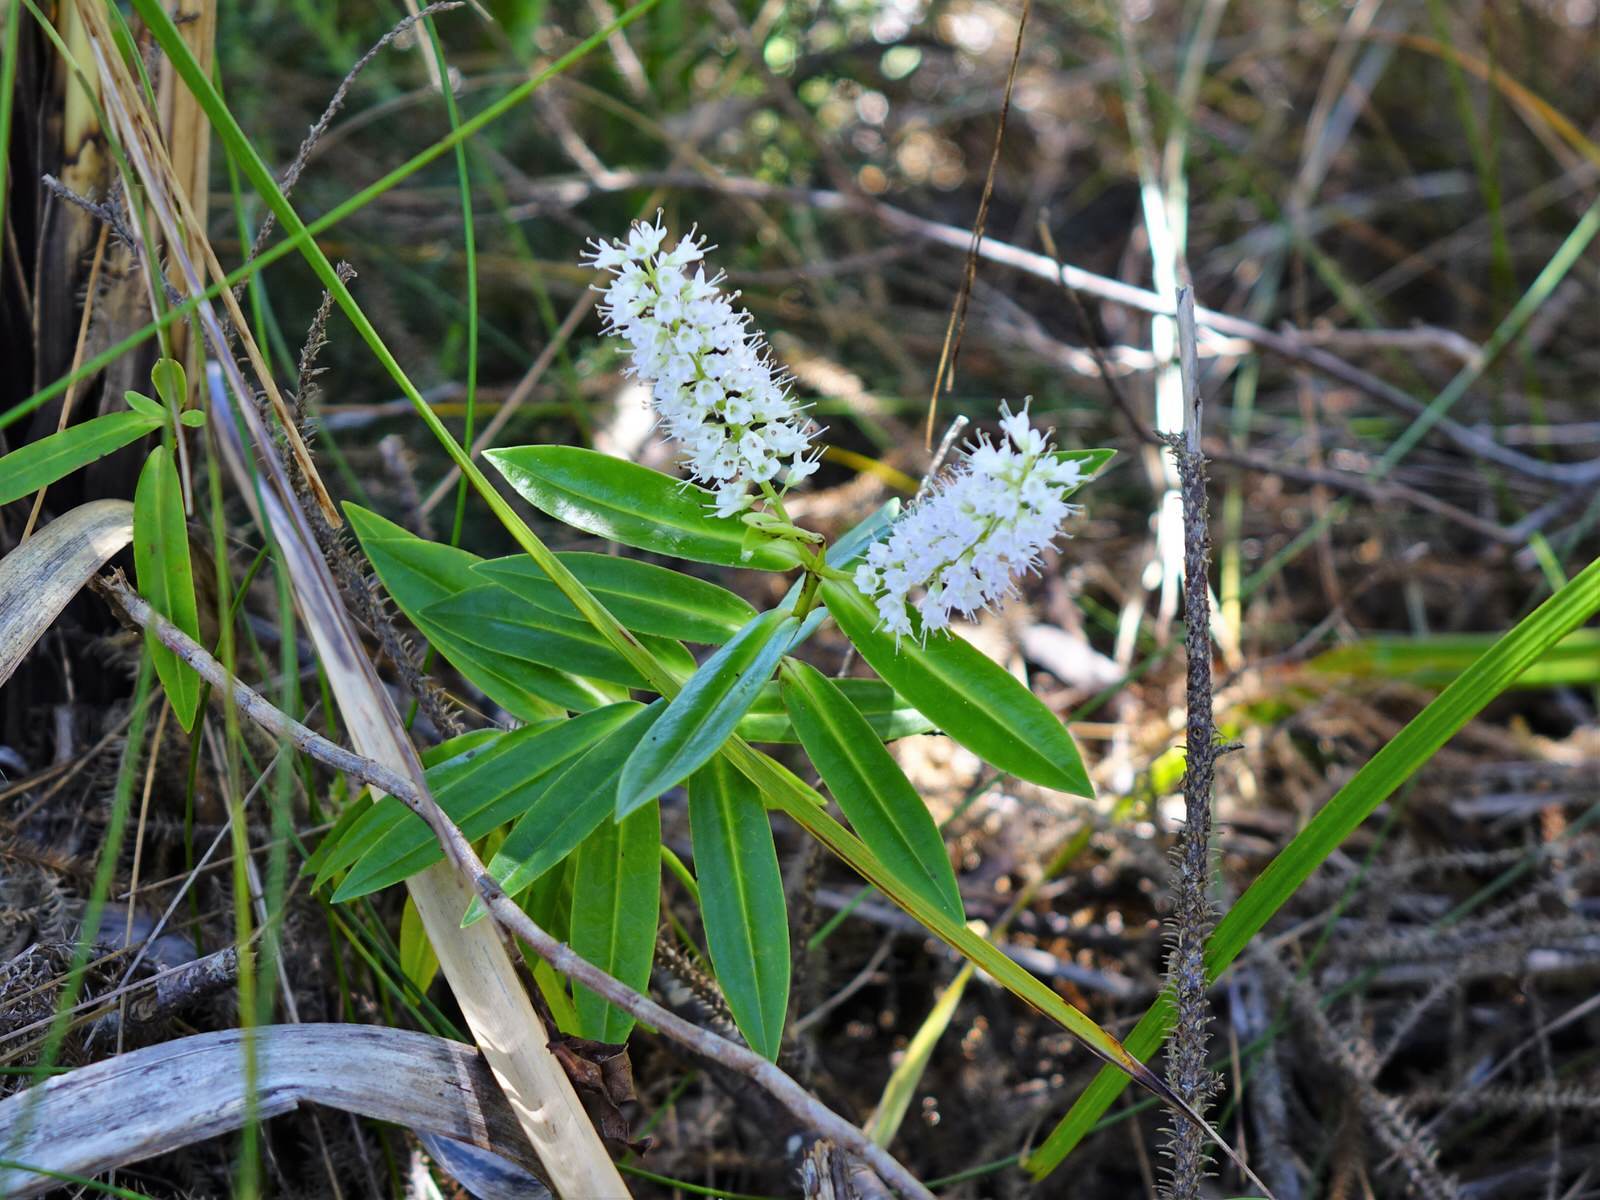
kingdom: Plantae
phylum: Tracheophyta
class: Magnoliopsida
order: Lamiales
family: Plantaginaceae
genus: Veronica
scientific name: Veronica macrocarpa
